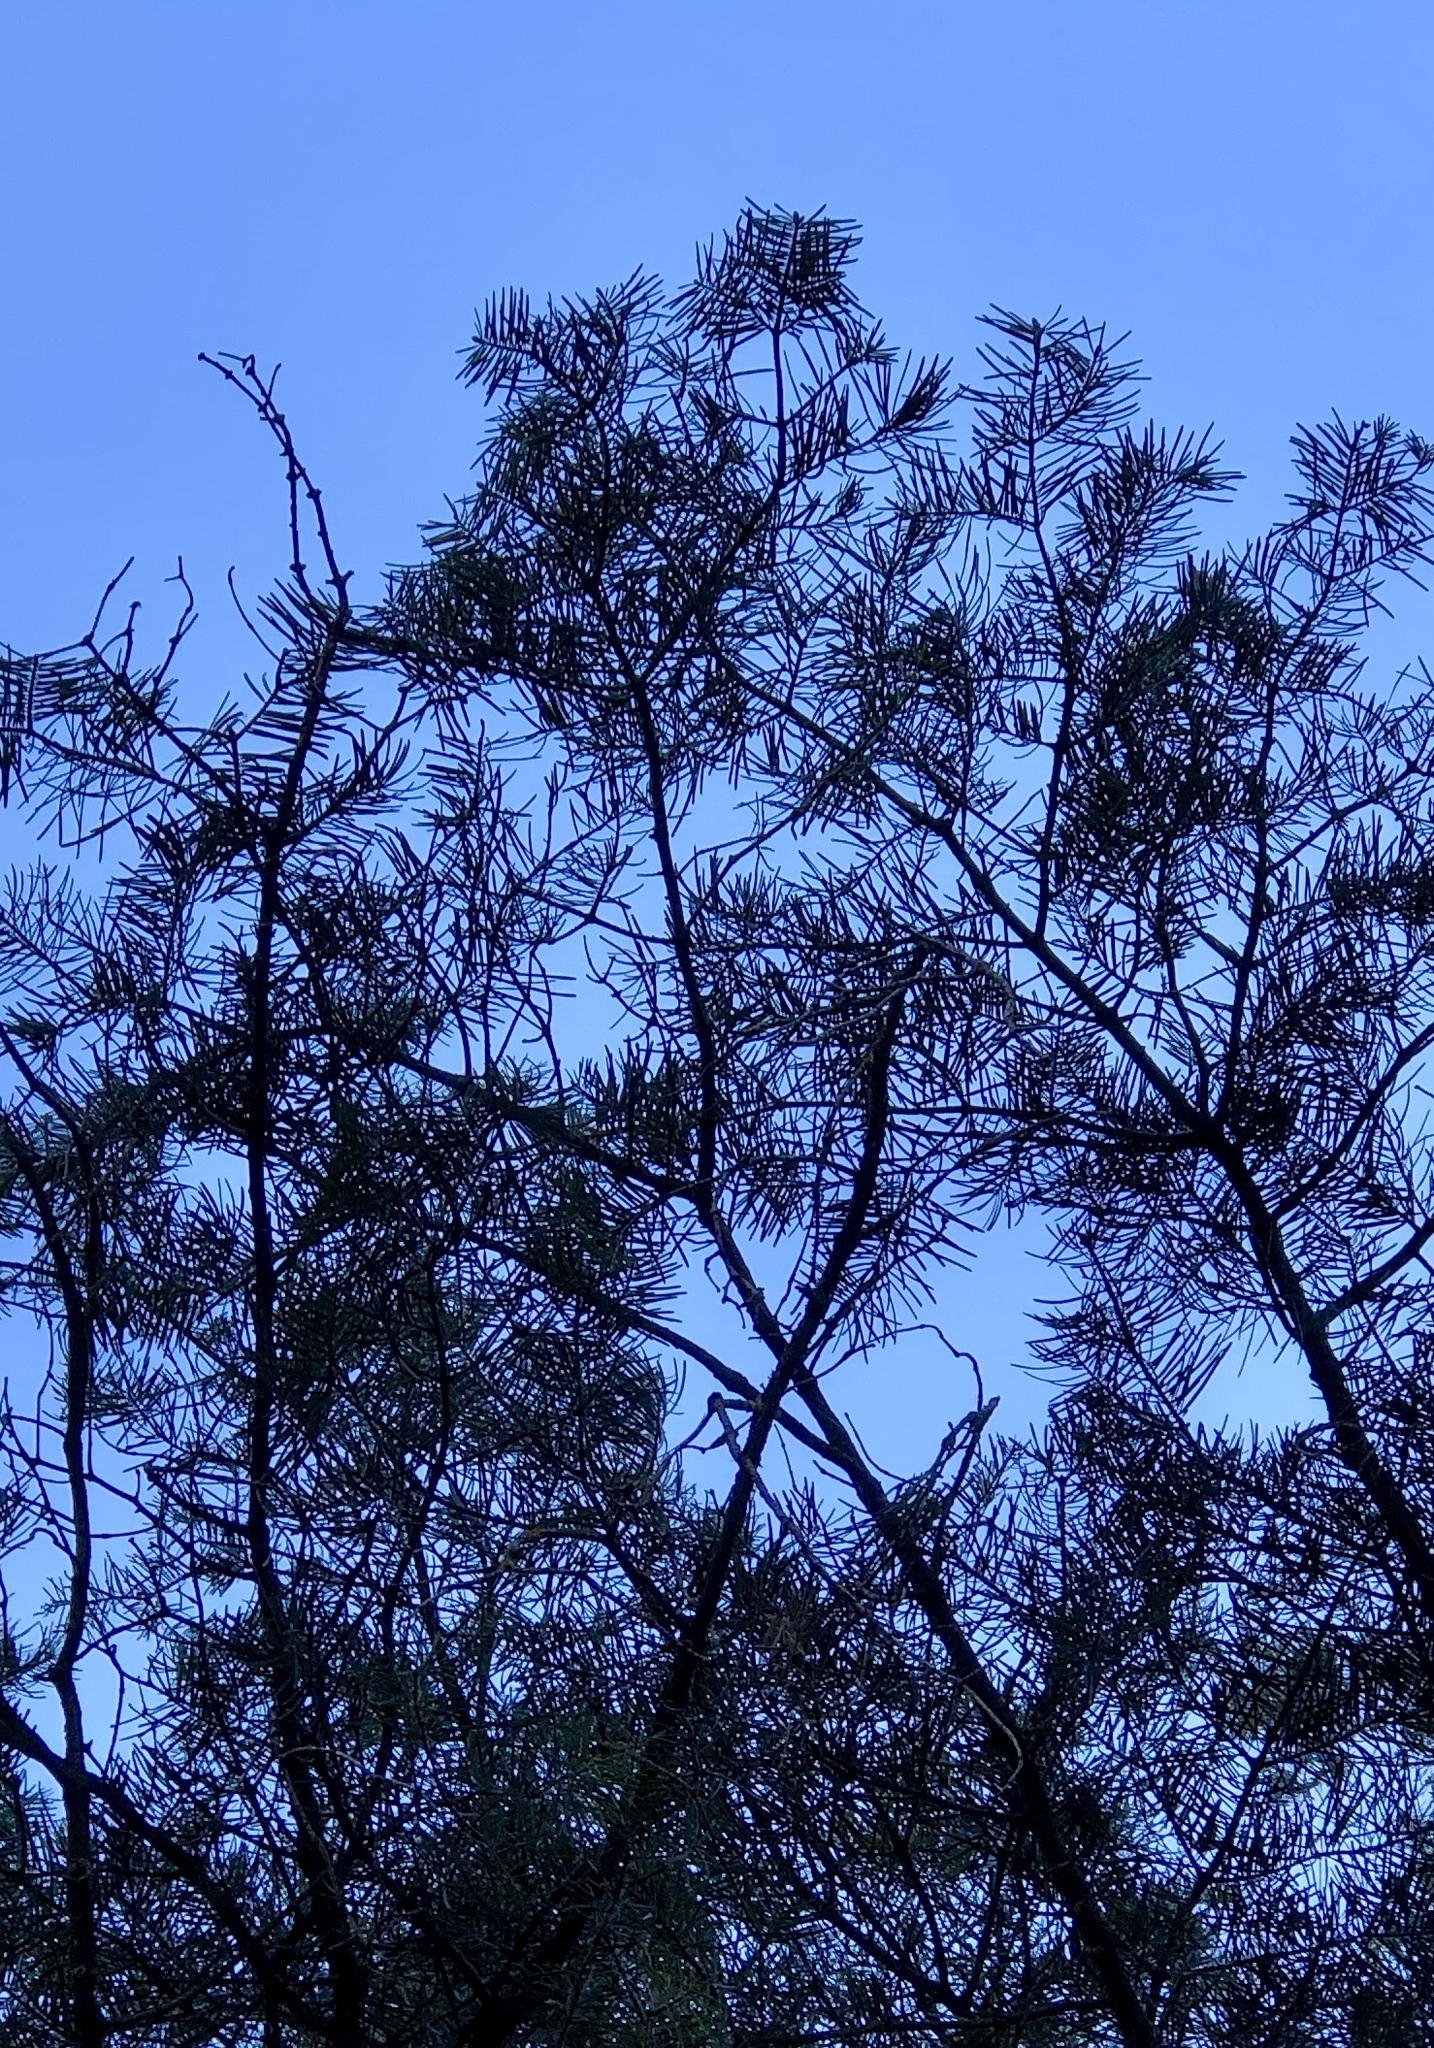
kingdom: Plantae
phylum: Tracheophyta
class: Pinopsida
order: Pinales
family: Pinaceae
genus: Abies
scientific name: Abies concolor
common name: Colorado fir
